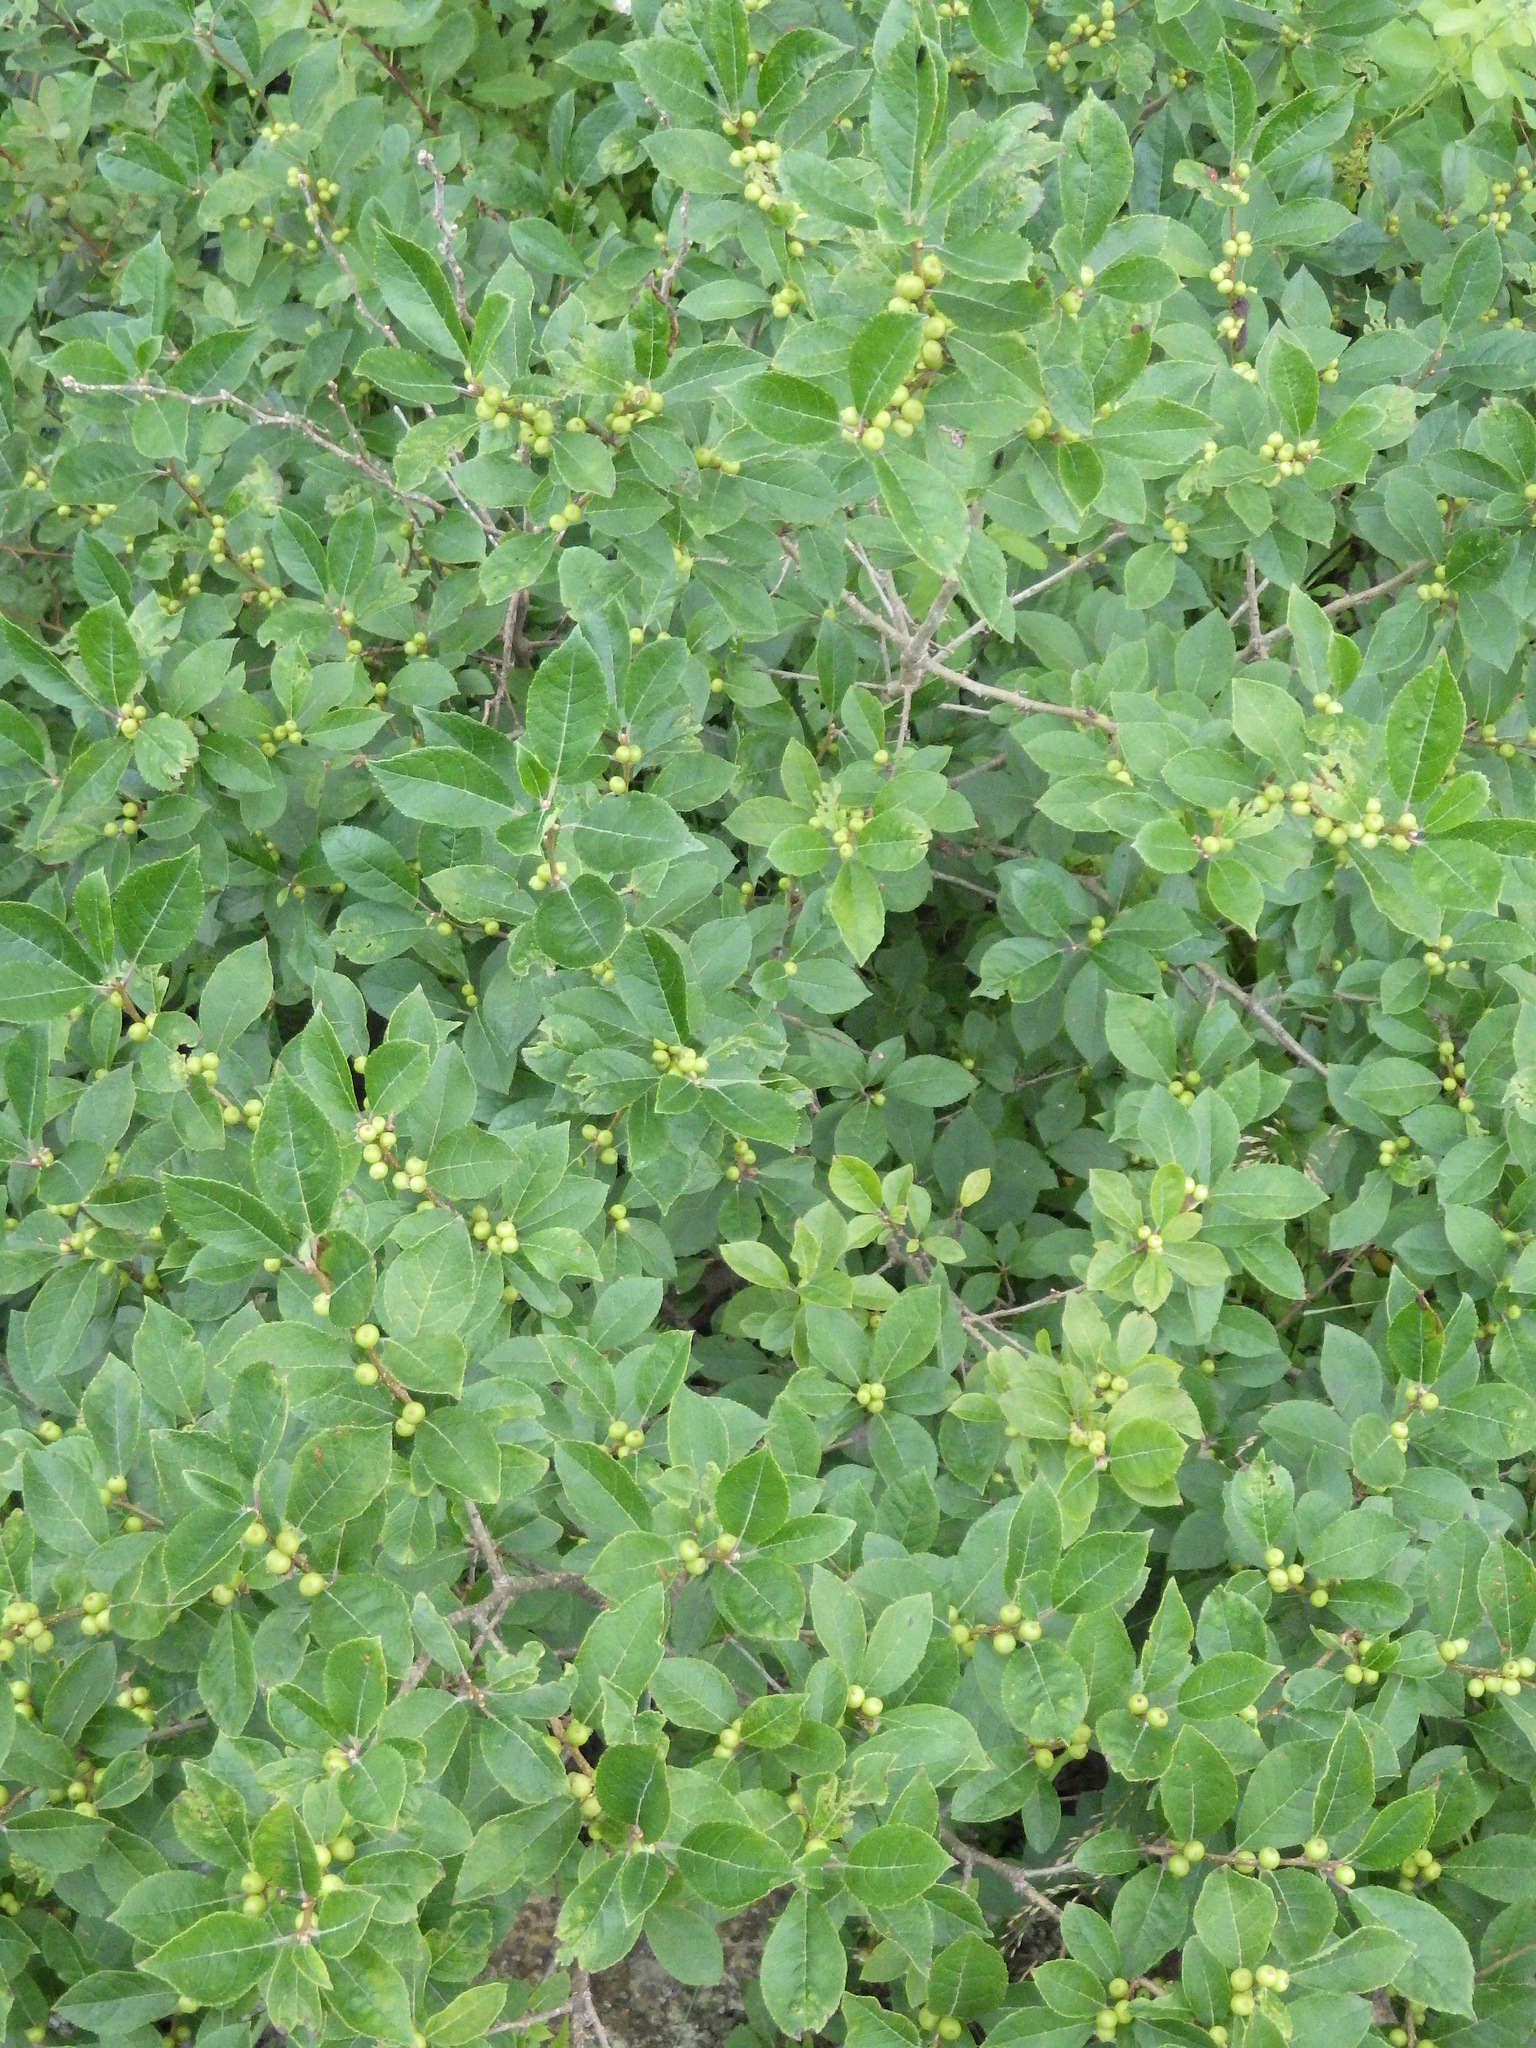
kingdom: Plantae
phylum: Tracheophyta
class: Magnoliopsida
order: Aquifoliales
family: Aquifoliaceae
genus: Ilex
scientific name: Ilex verticillata
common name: Virginia winterberry
